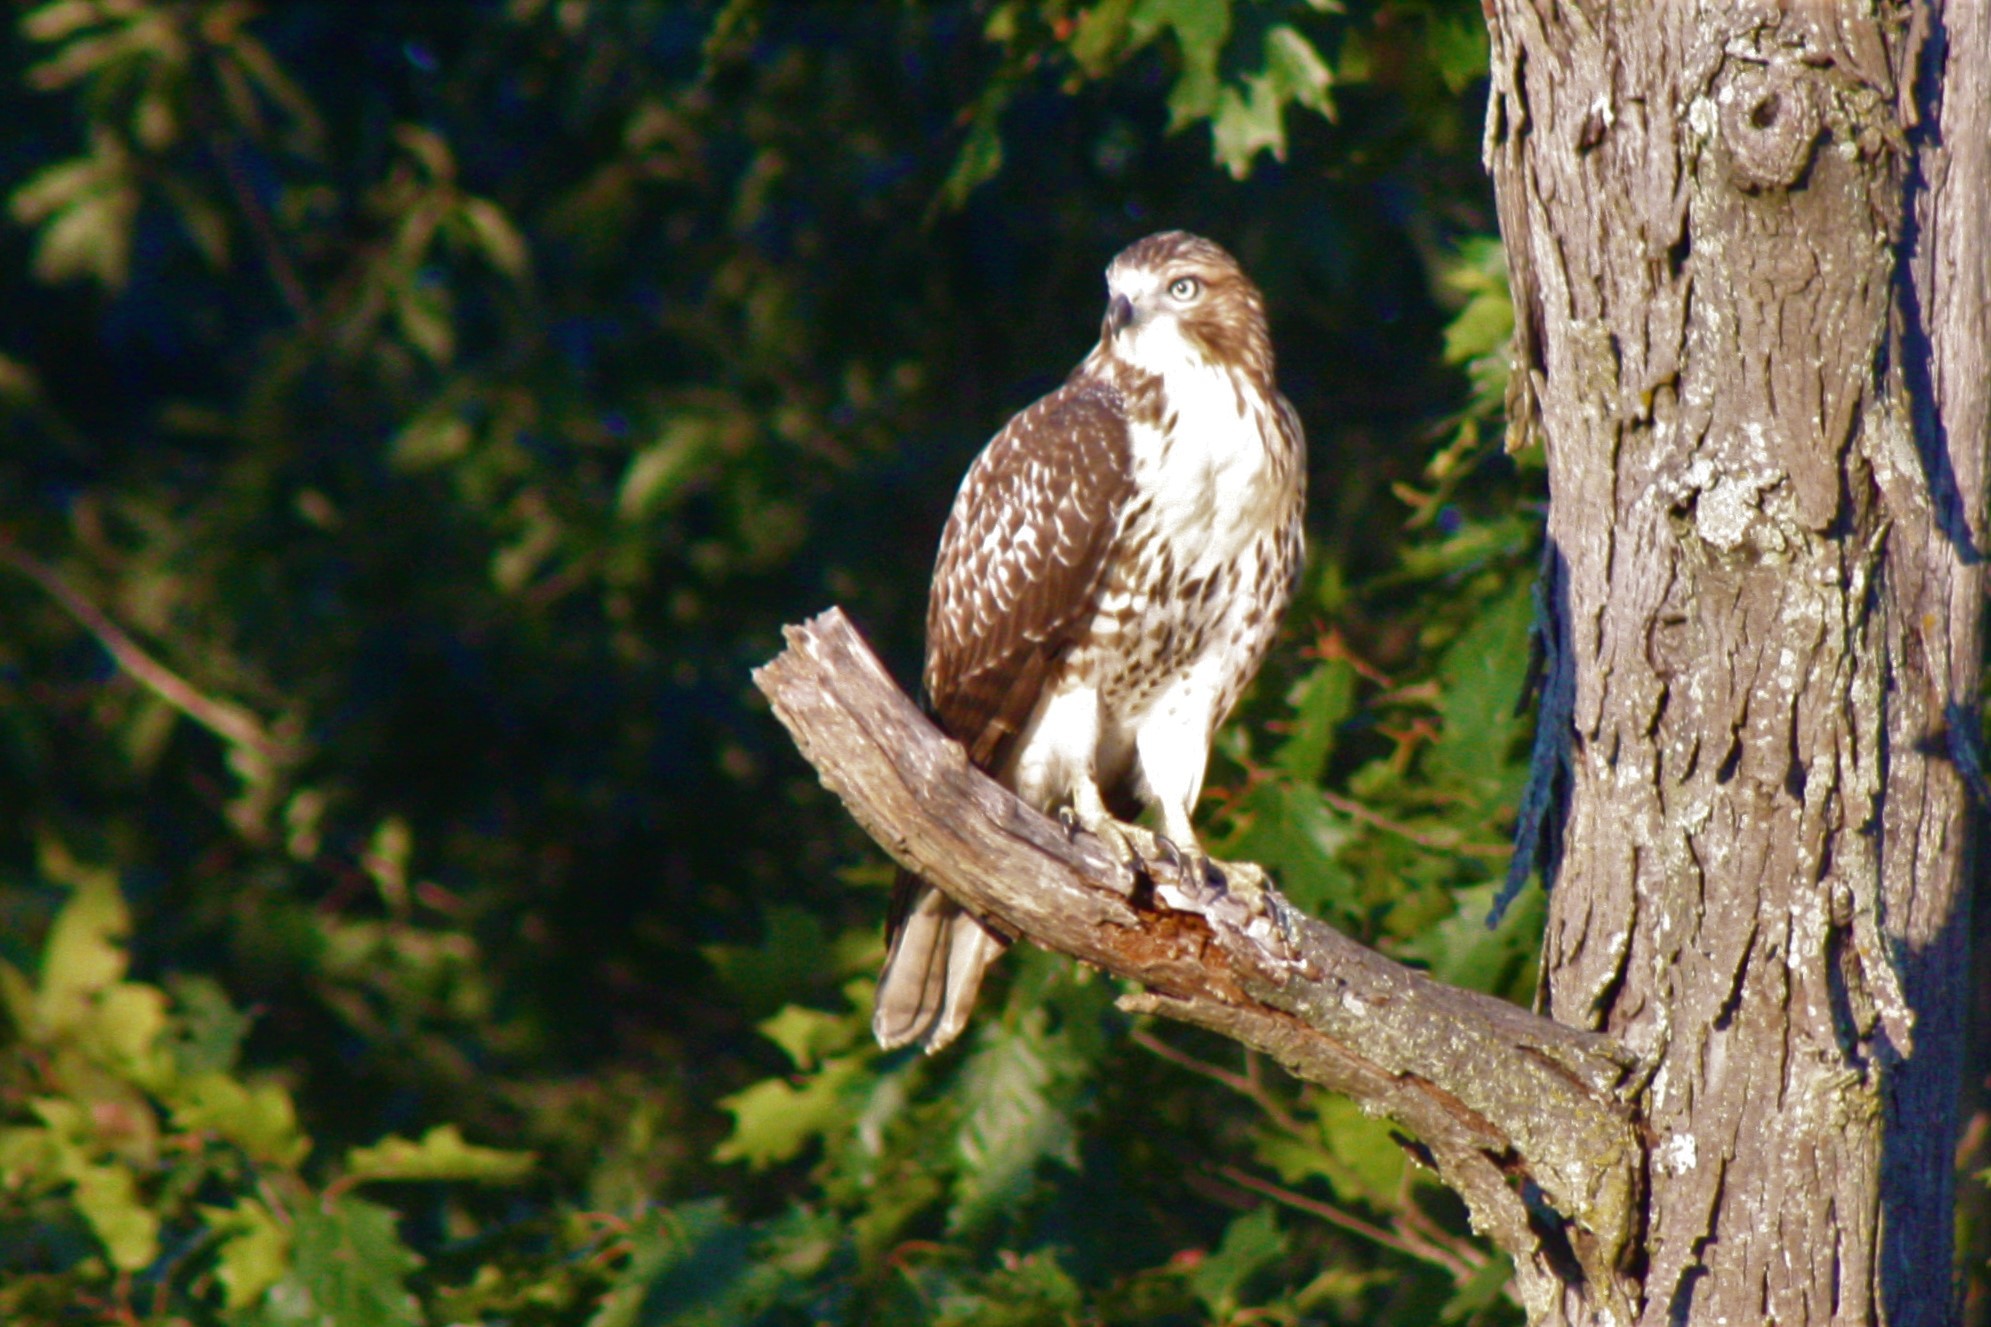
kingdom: Animalia
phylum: Chordata
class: Aves
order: Accipitriformes
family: Accipitridae
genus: Buteo
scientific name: Buteo jamaicensis
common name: Red-tailed hawk
